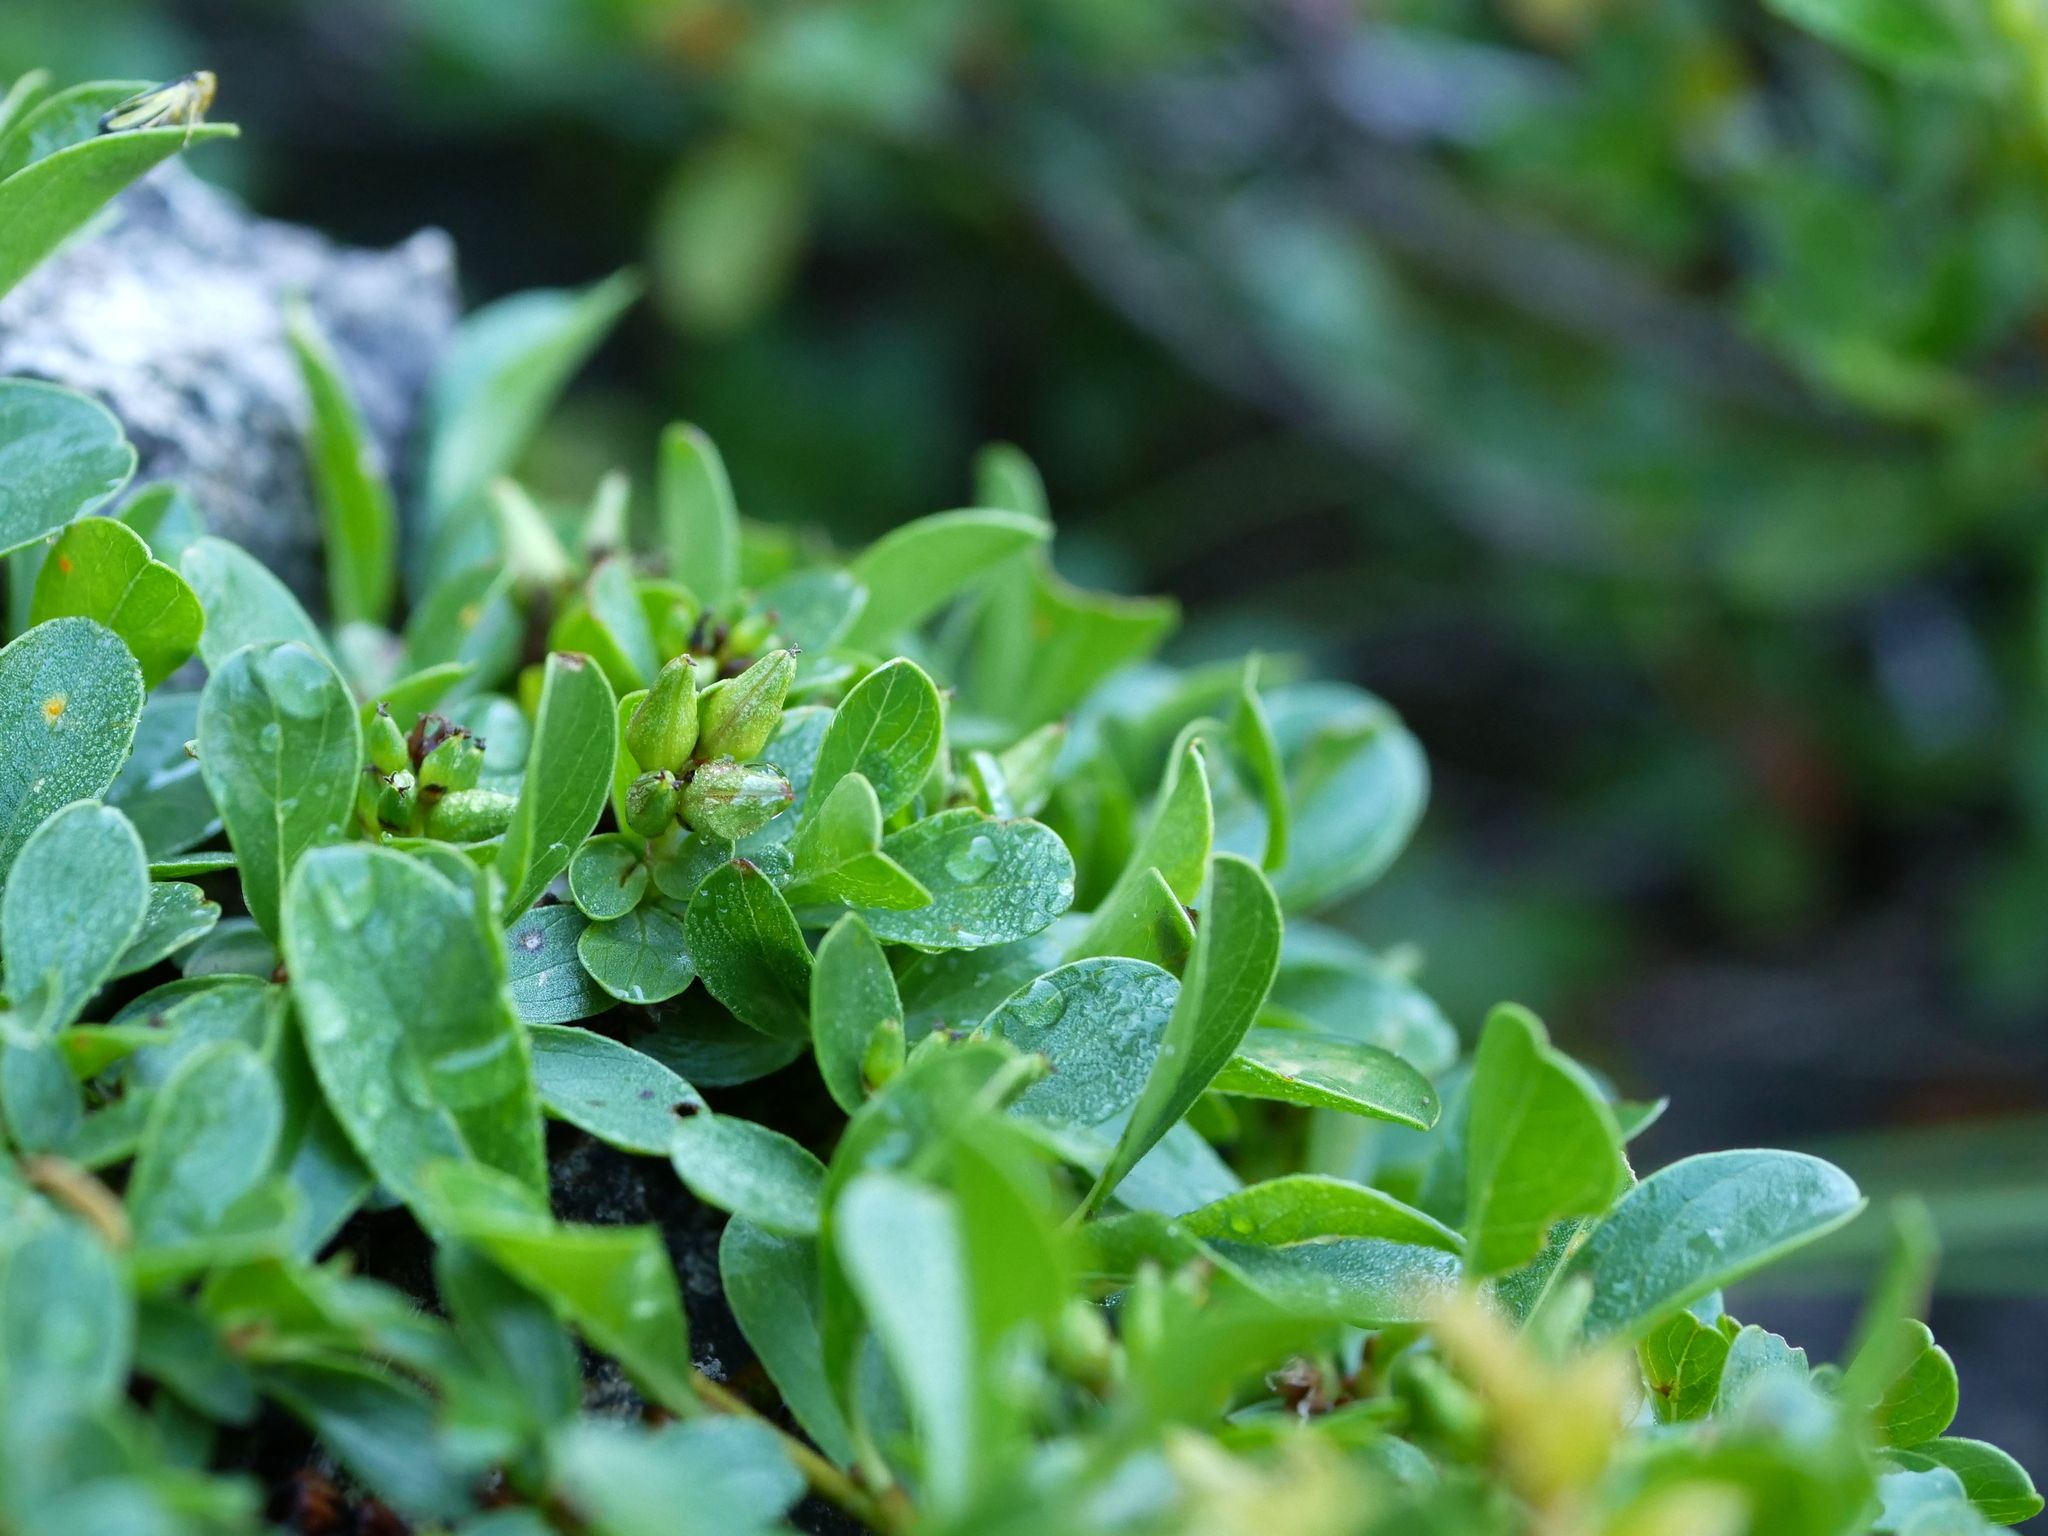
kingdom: Plantae
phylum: Tracheophyta
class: Magnoliopsida
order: Malpighiales
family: Salicaceae
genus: Salix
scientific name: Salix retusa
